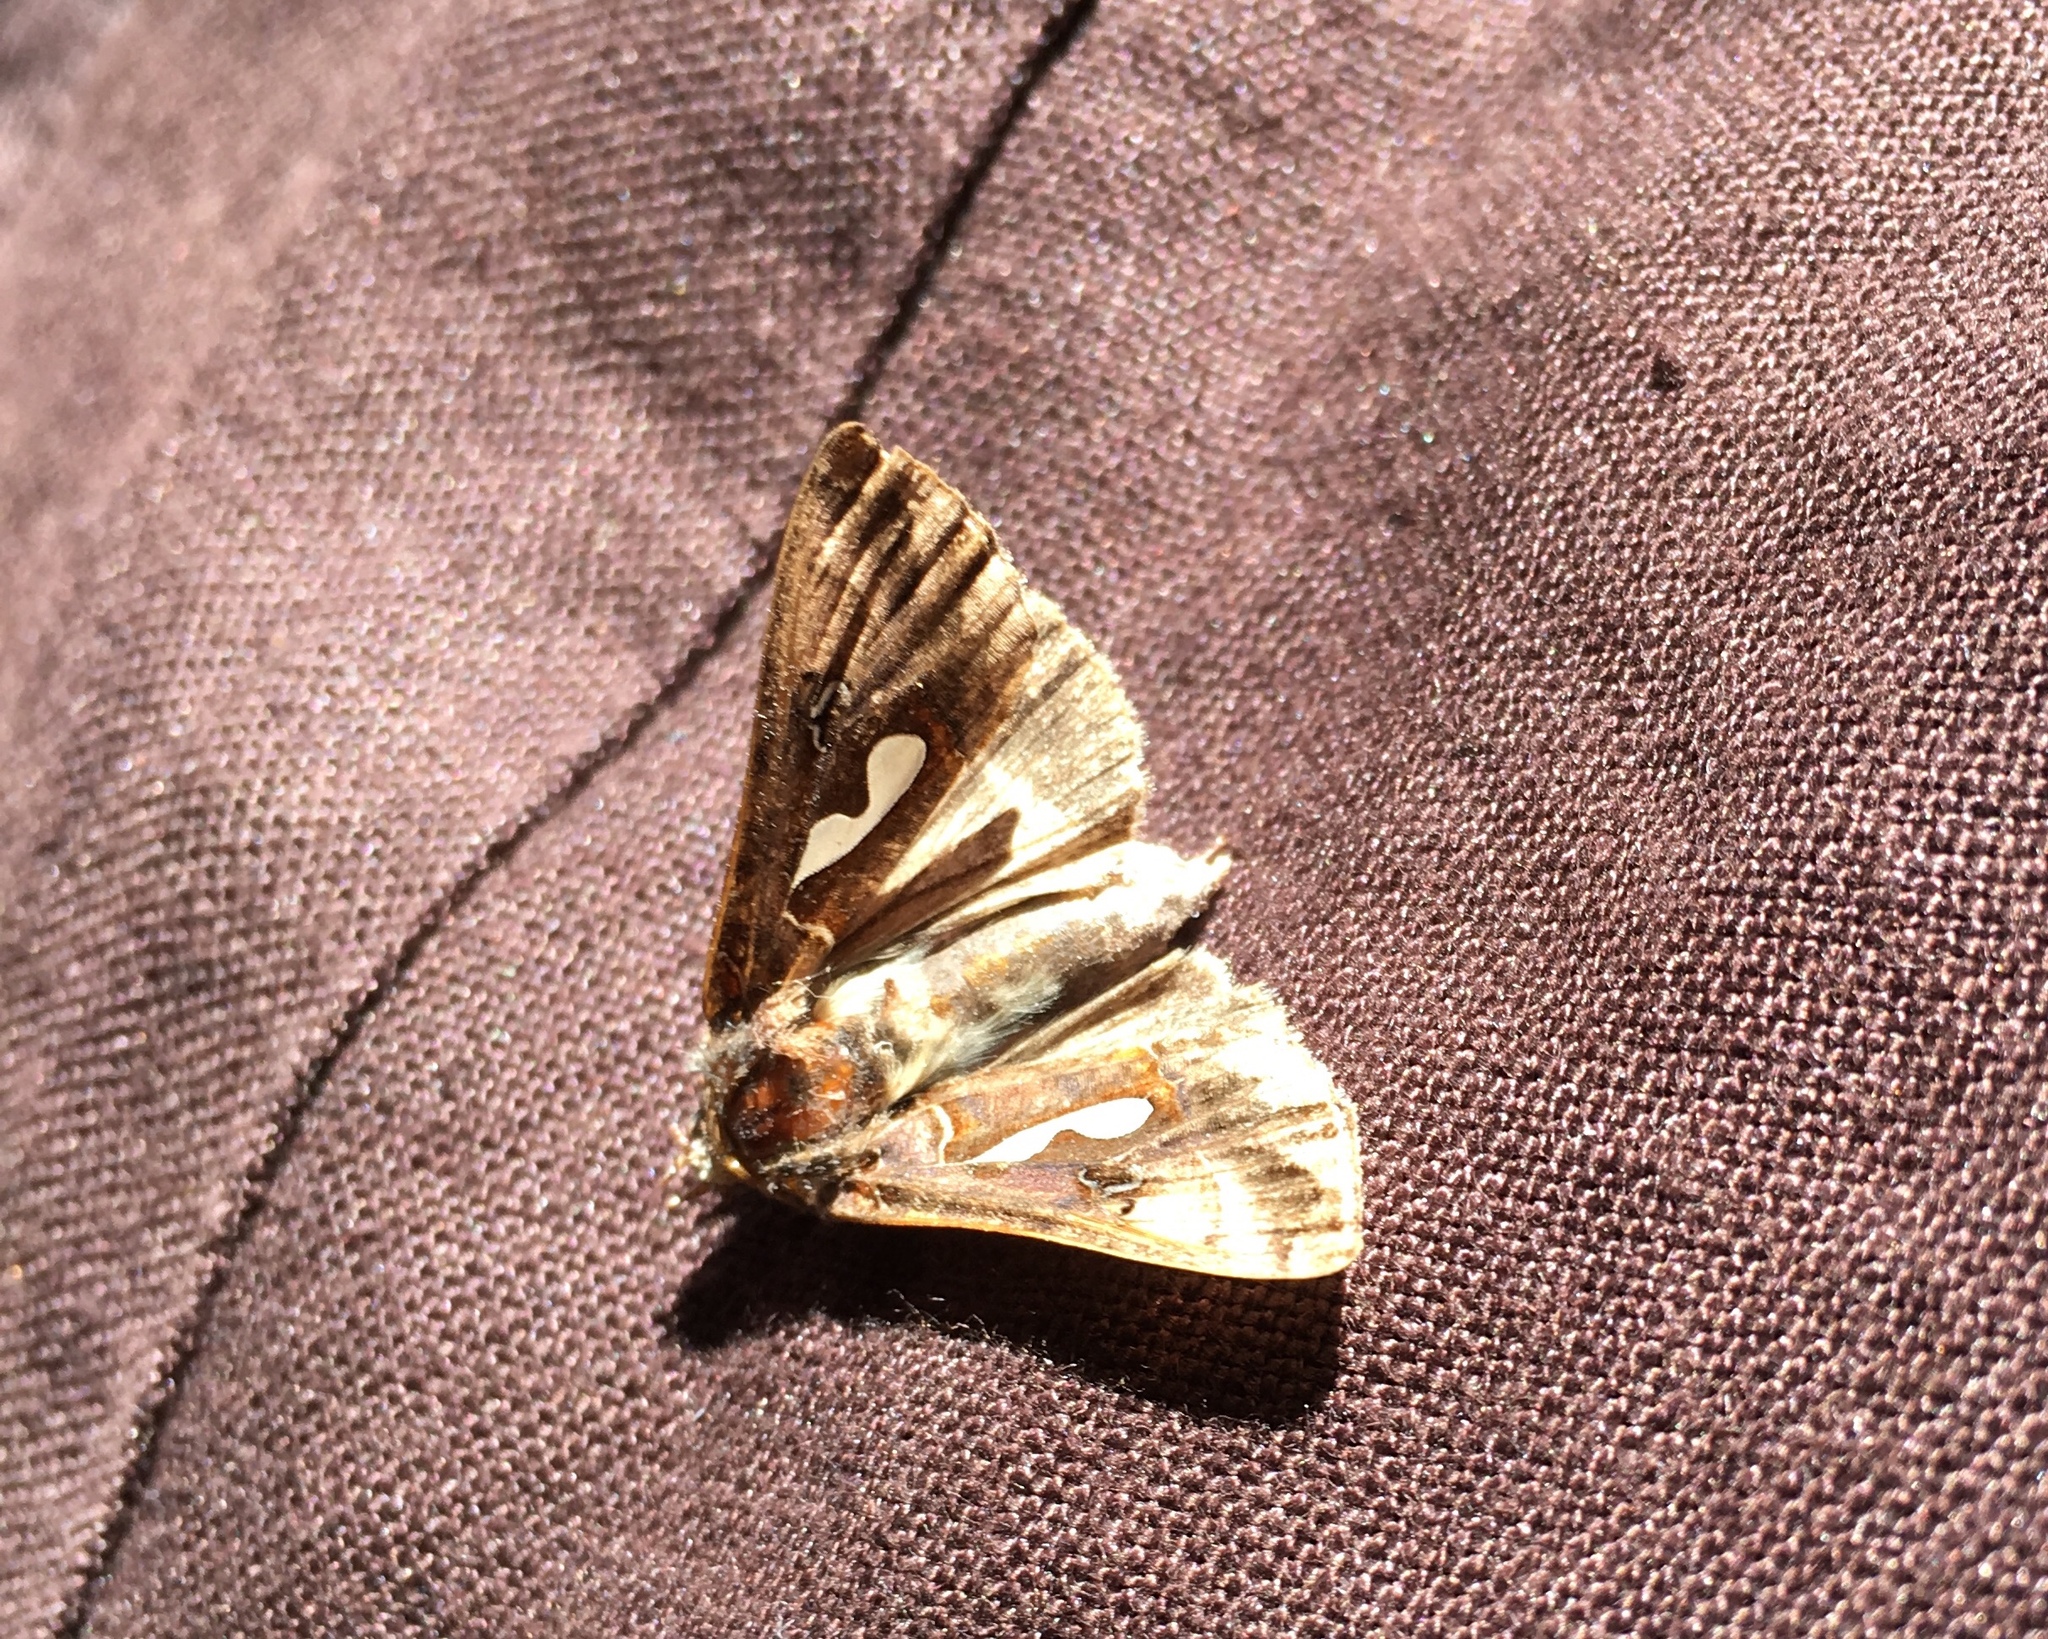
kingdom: Animalia
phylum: Arthropoda
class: Insecta
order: Lepidoptera
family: Noctuidae
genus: Megalographa
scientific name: Megalographa biloba
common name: Cutworm
